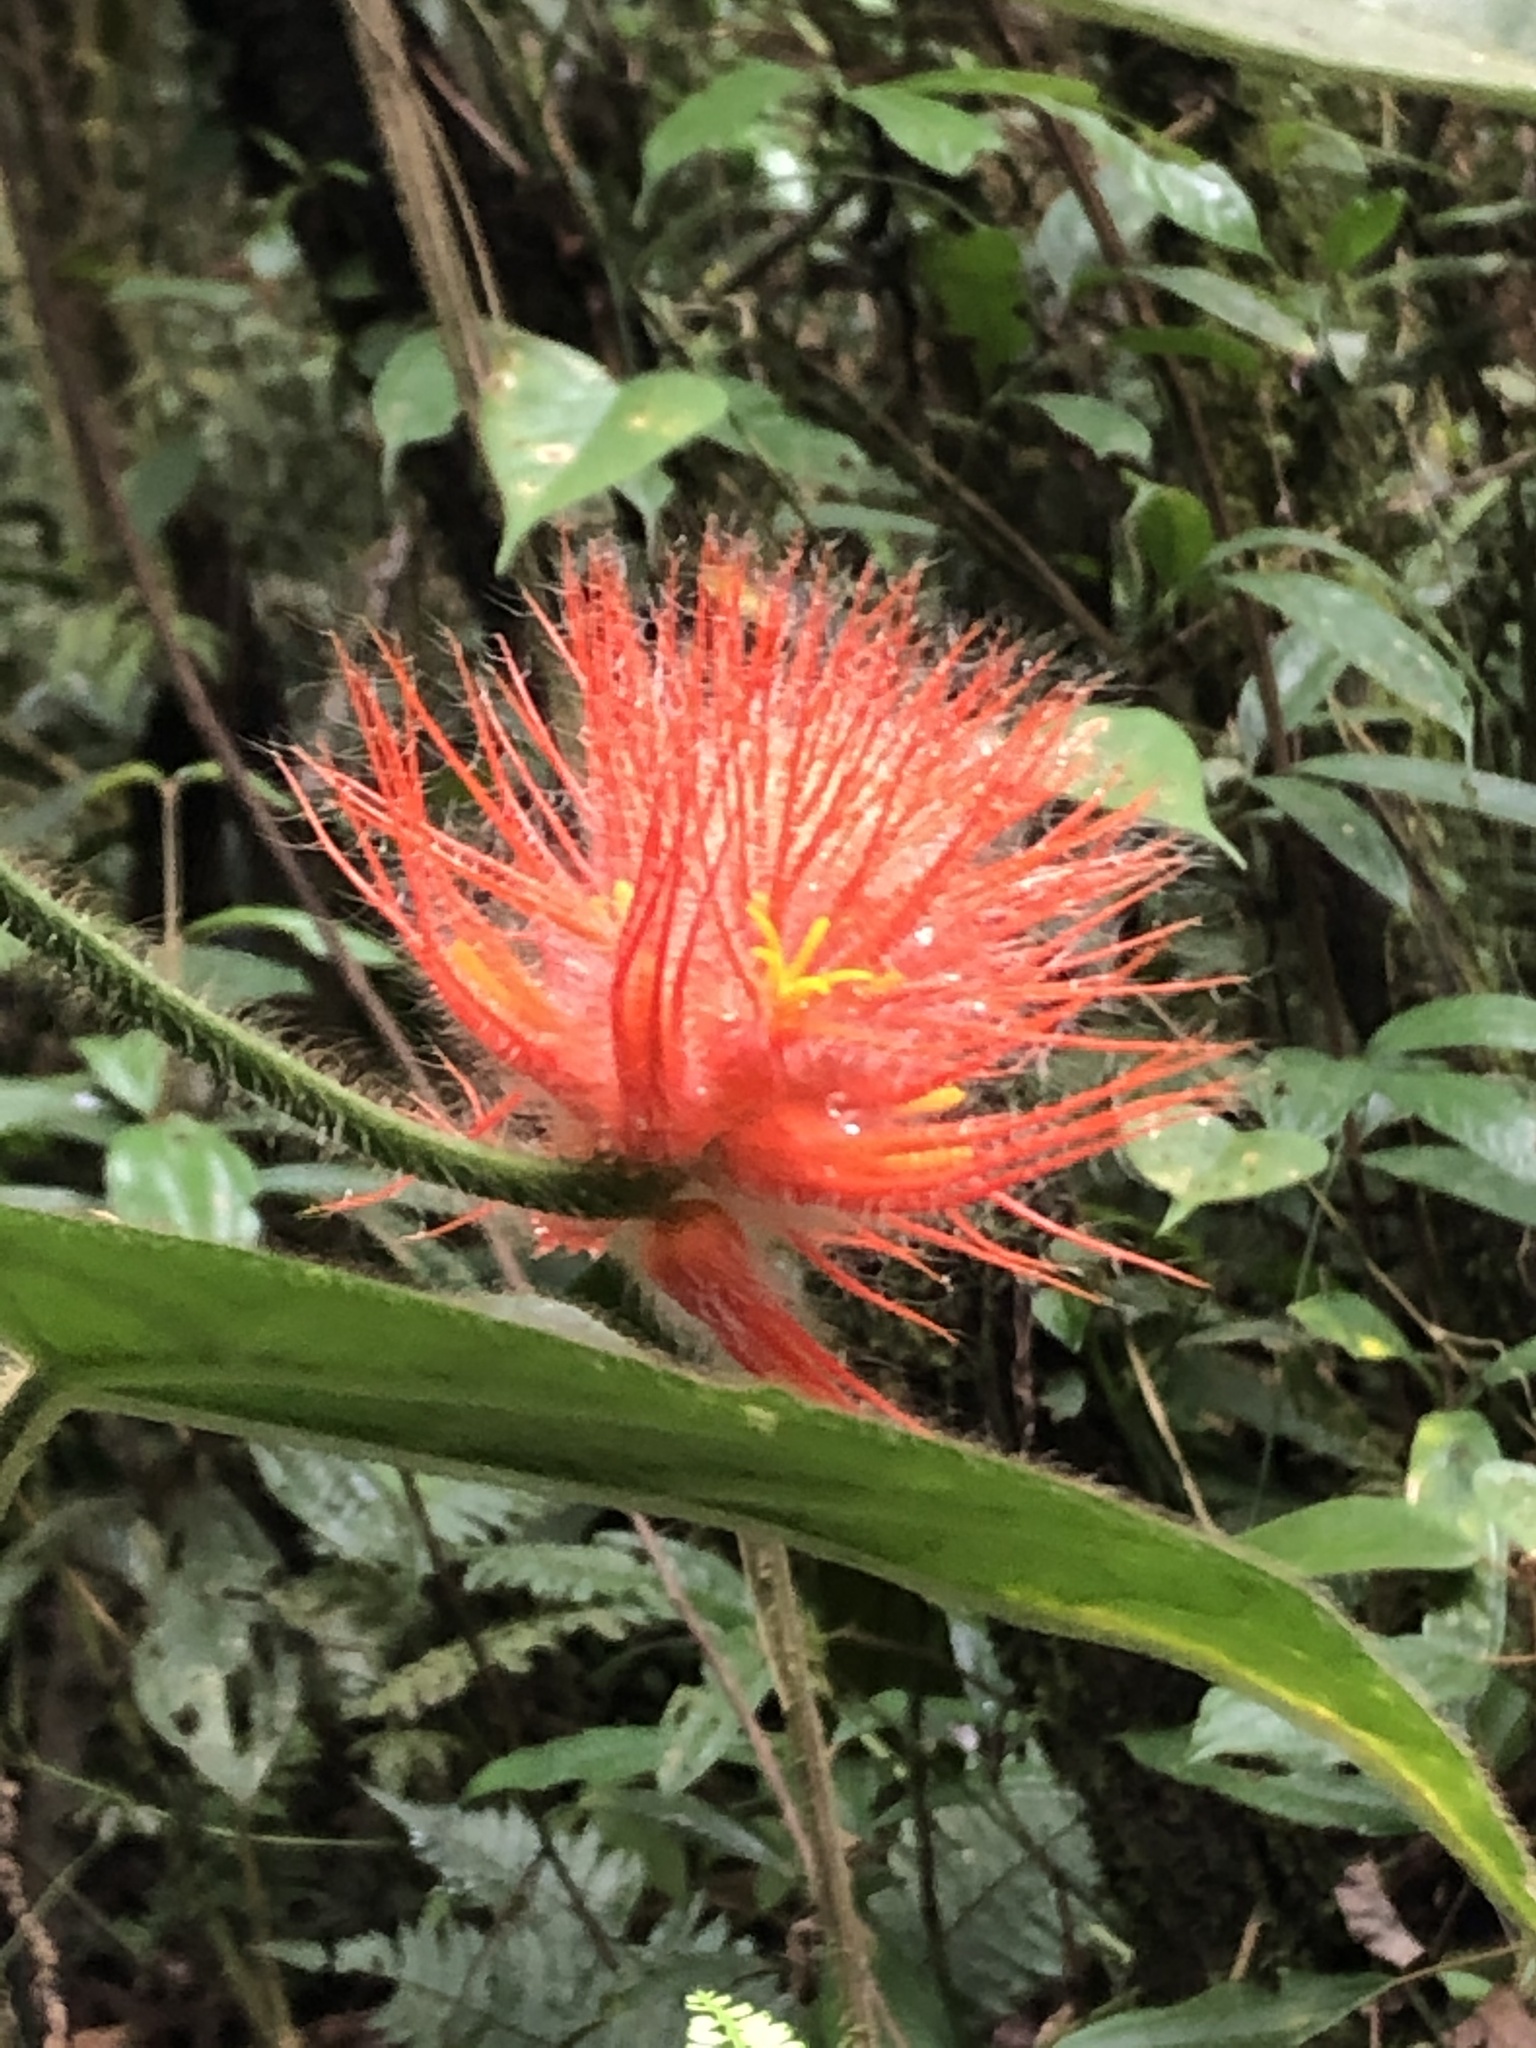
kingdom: Plantae
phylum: Tracheophyta
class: Magnoliopsida
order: Cucurbitales
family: Cucurbitaceae
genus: Gurania
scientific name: Gurania eriantha
